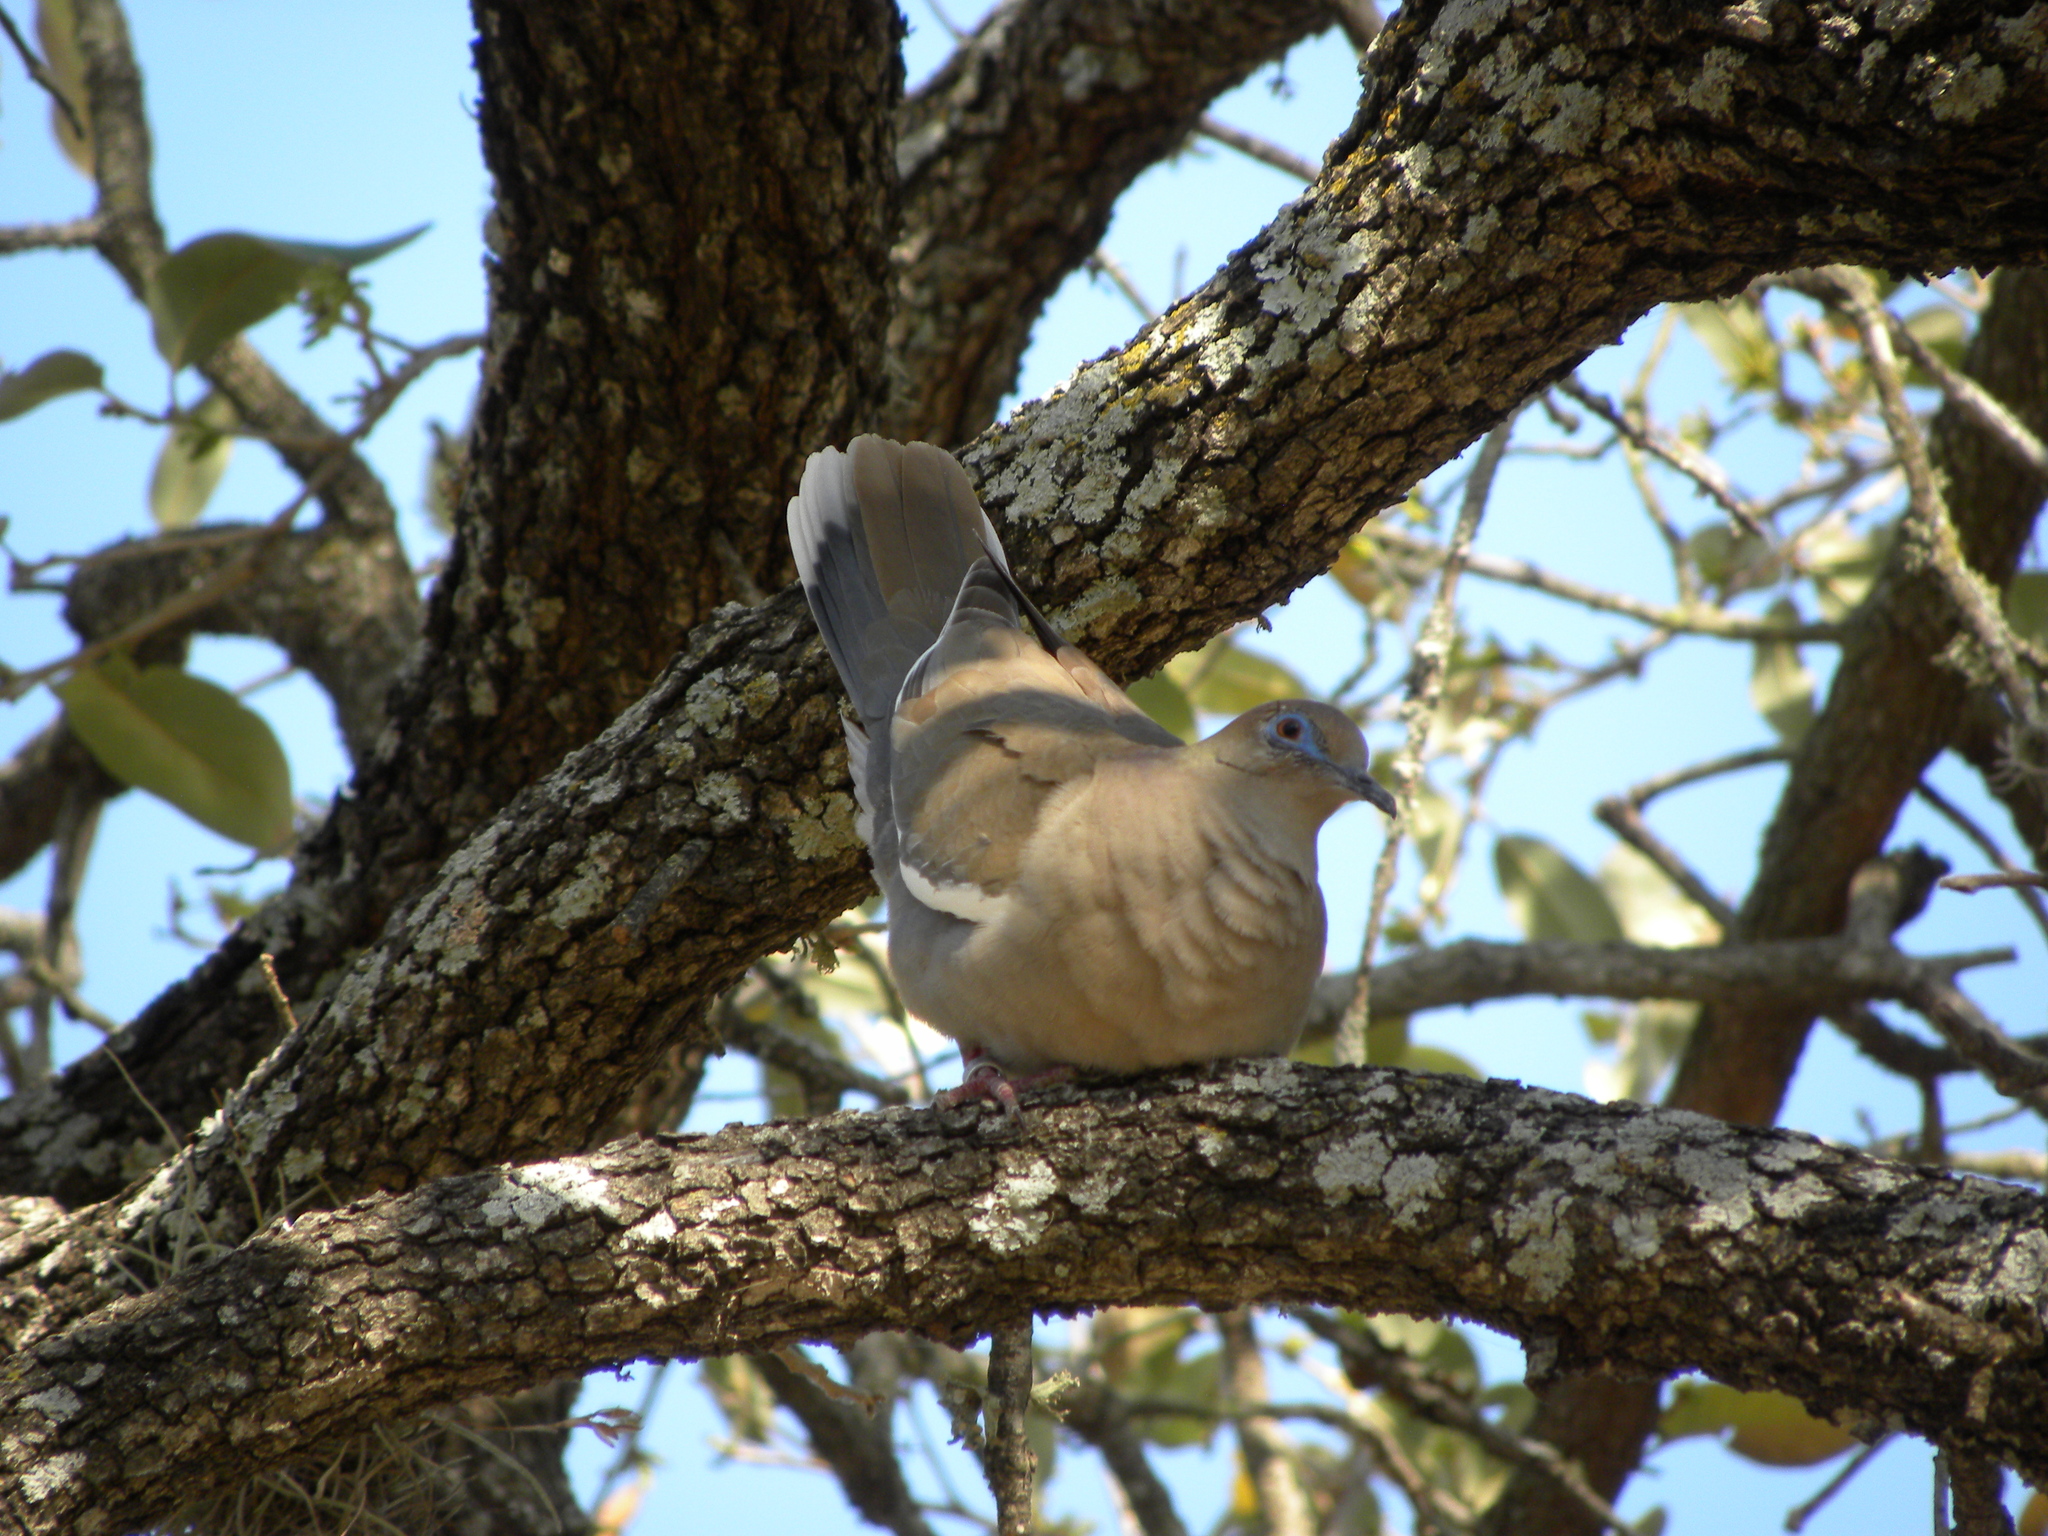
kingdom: Animalia
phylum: Chordata
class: Aves
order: Columbiformes
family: Columbidae
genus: Zenaida
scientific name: Zenaida asiatica
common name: White-winged dove
